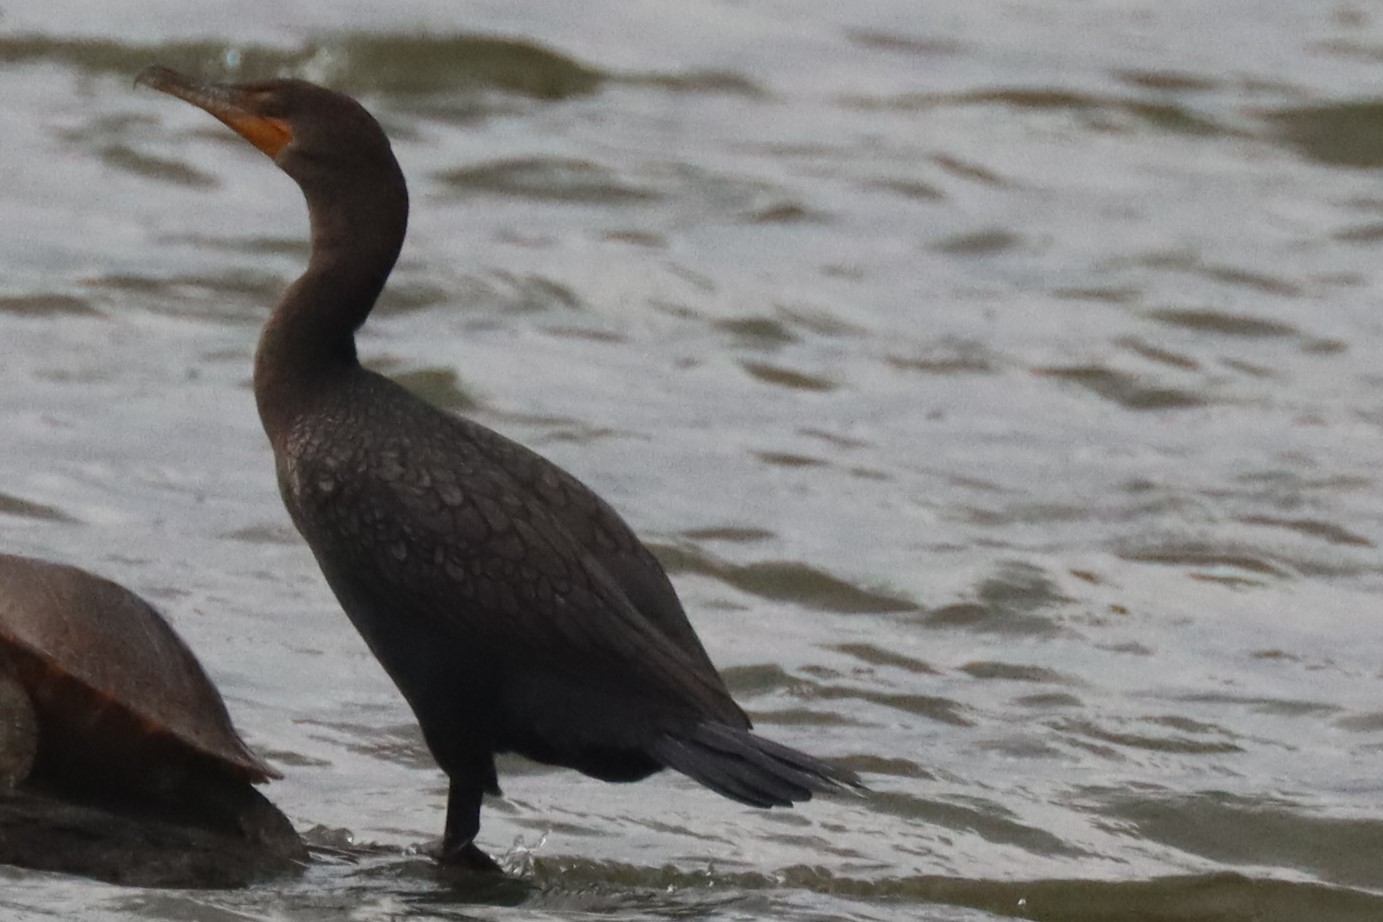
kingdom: Animalia
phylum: Chordata
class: Aves
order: Suliformes
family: Phalacrocoracidae
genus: Phalacrocorax
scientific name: Phalacrocorax auritus
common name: Double-crested cormorant
